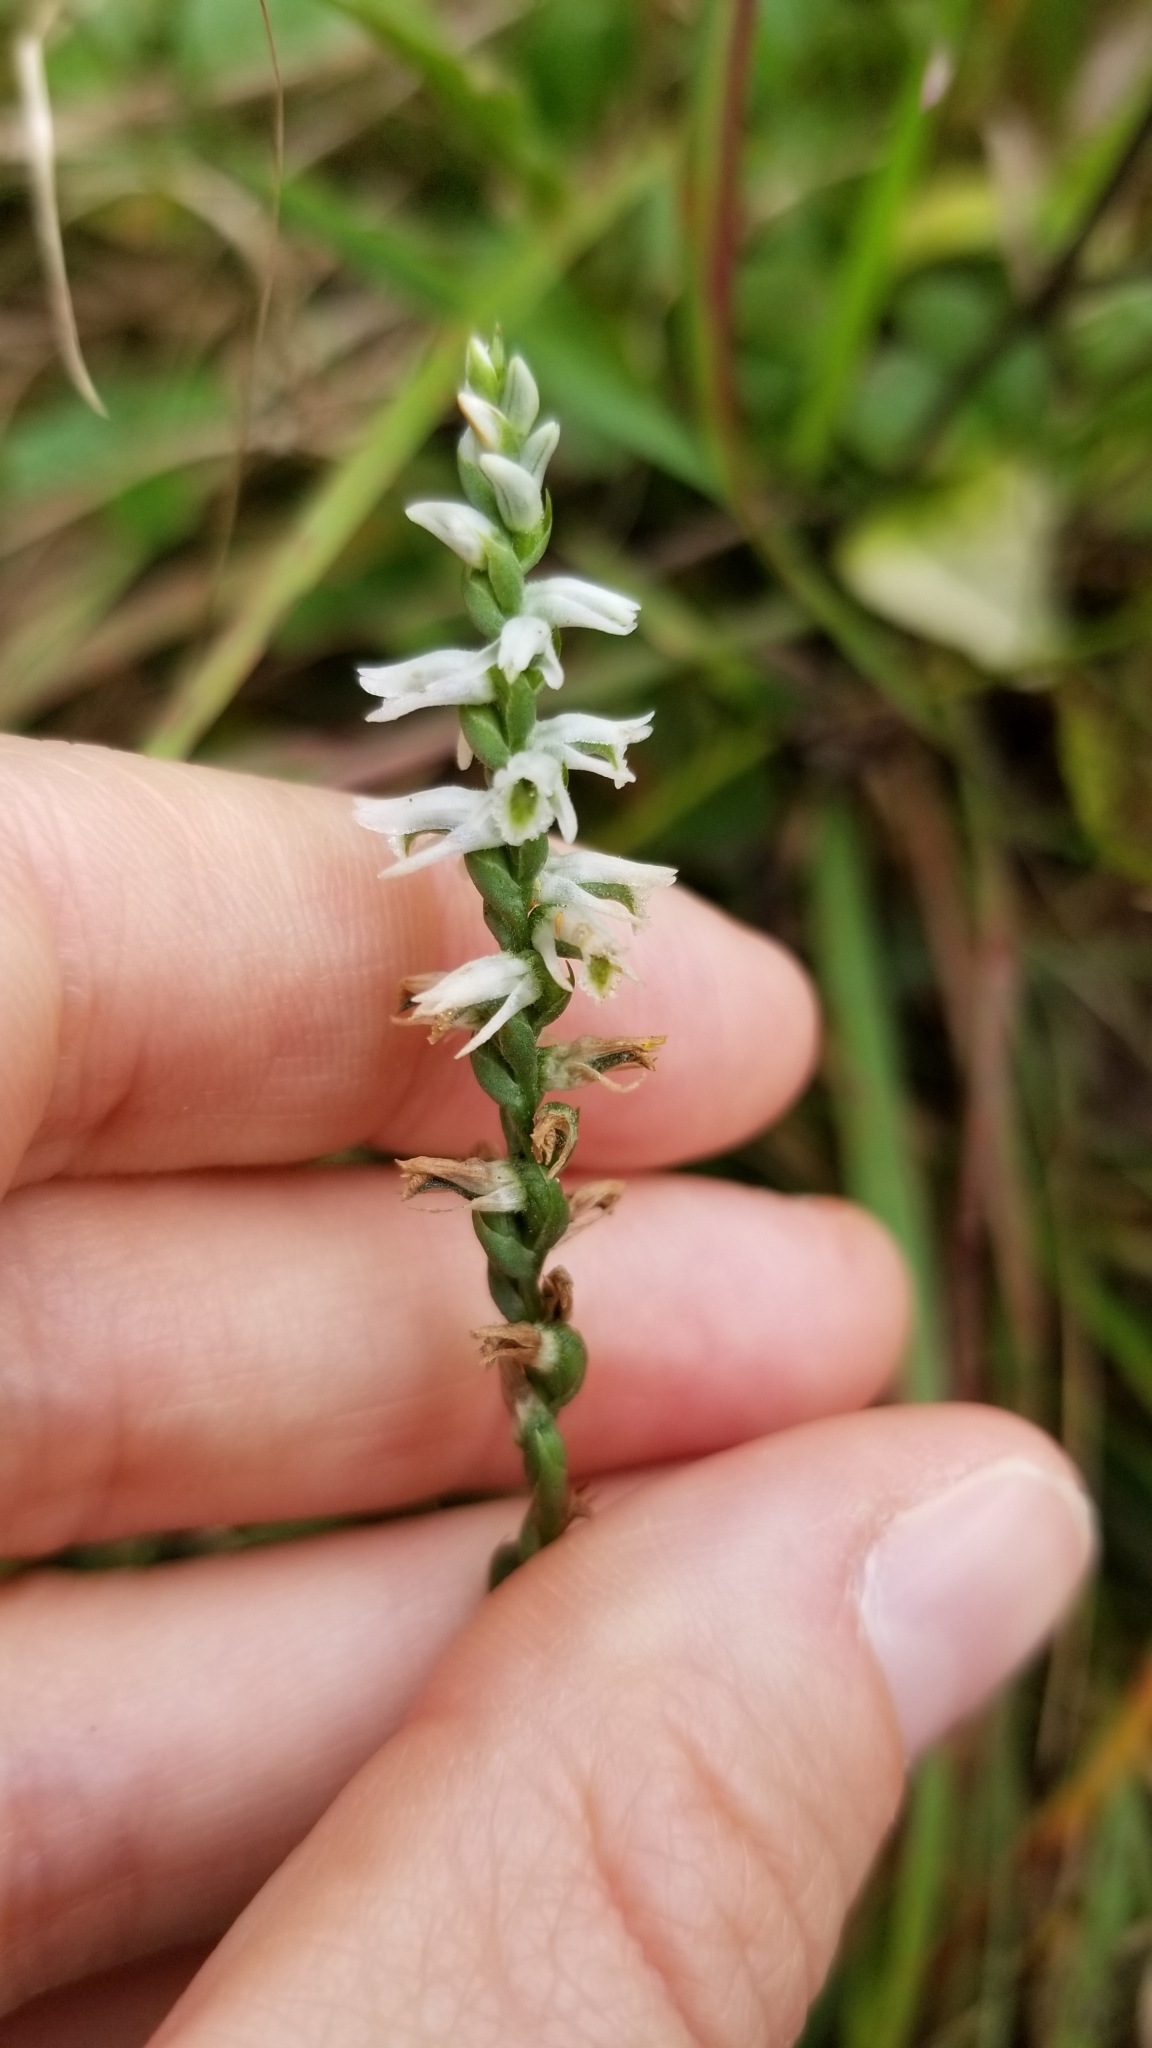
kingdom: Plantae
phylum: Tracheophyta
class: Liliopsida
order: Asparagales
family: Orchidaceae
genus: Spiranthes
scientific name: Spiranthes lacera
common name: Northern slender ladies'-tresses
